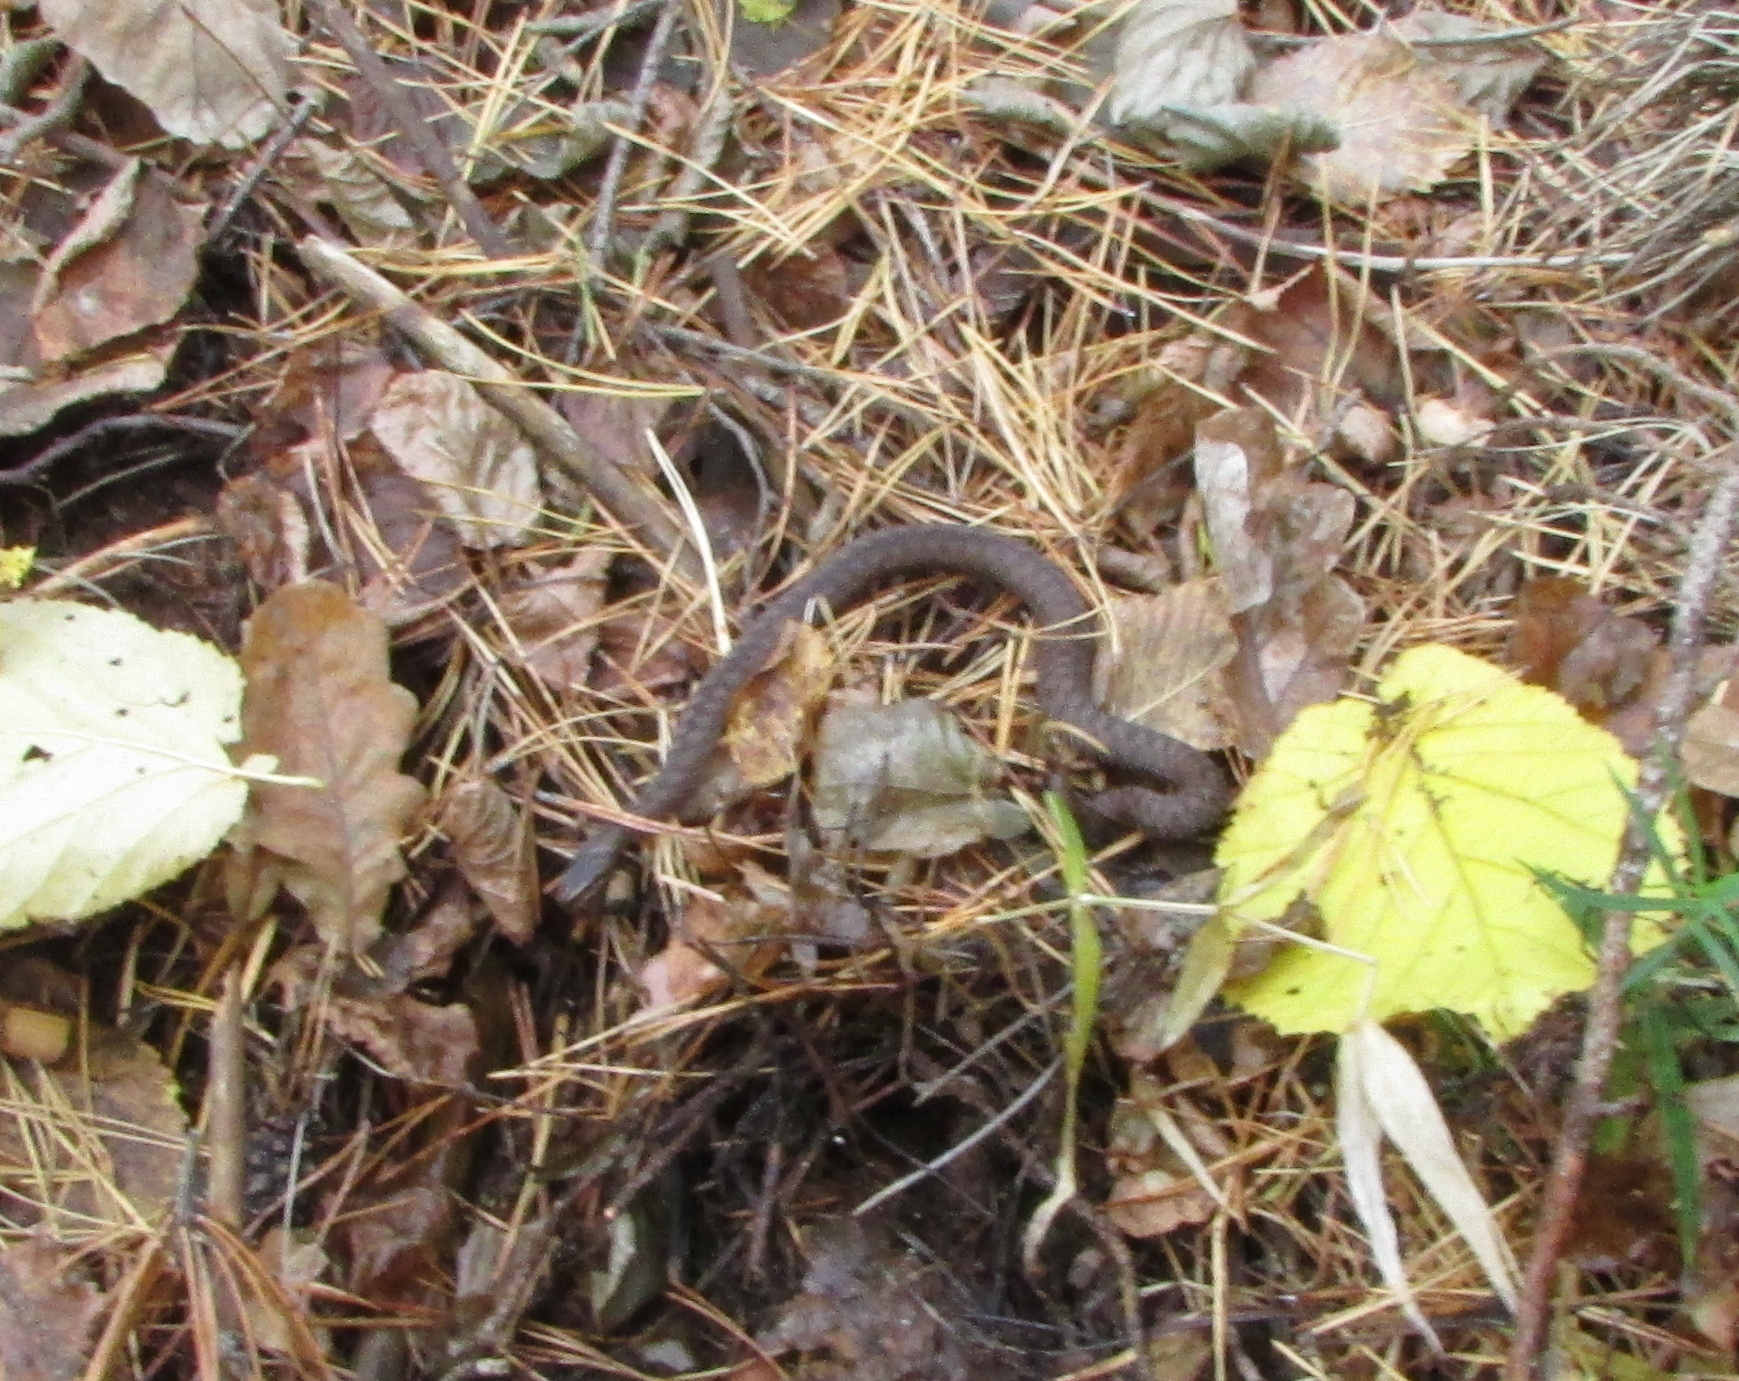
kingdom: Animalia
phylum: Chordata
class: Squamata
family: Viperidae
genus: Vipera
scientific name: Vipera berus
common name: Adder
